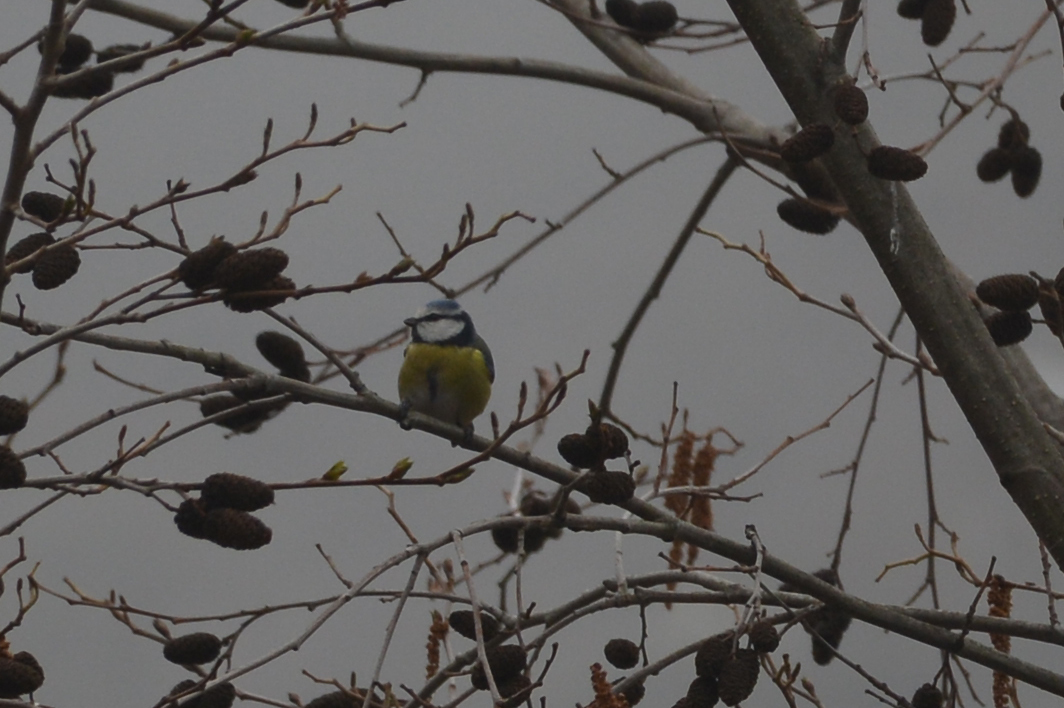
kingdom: Animalia
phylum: Chordata
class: Aves
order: Passeriformes
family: Paridae
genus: Cyanistes
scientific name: Cyanistes caeruleus
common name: Eurasian blue tit
